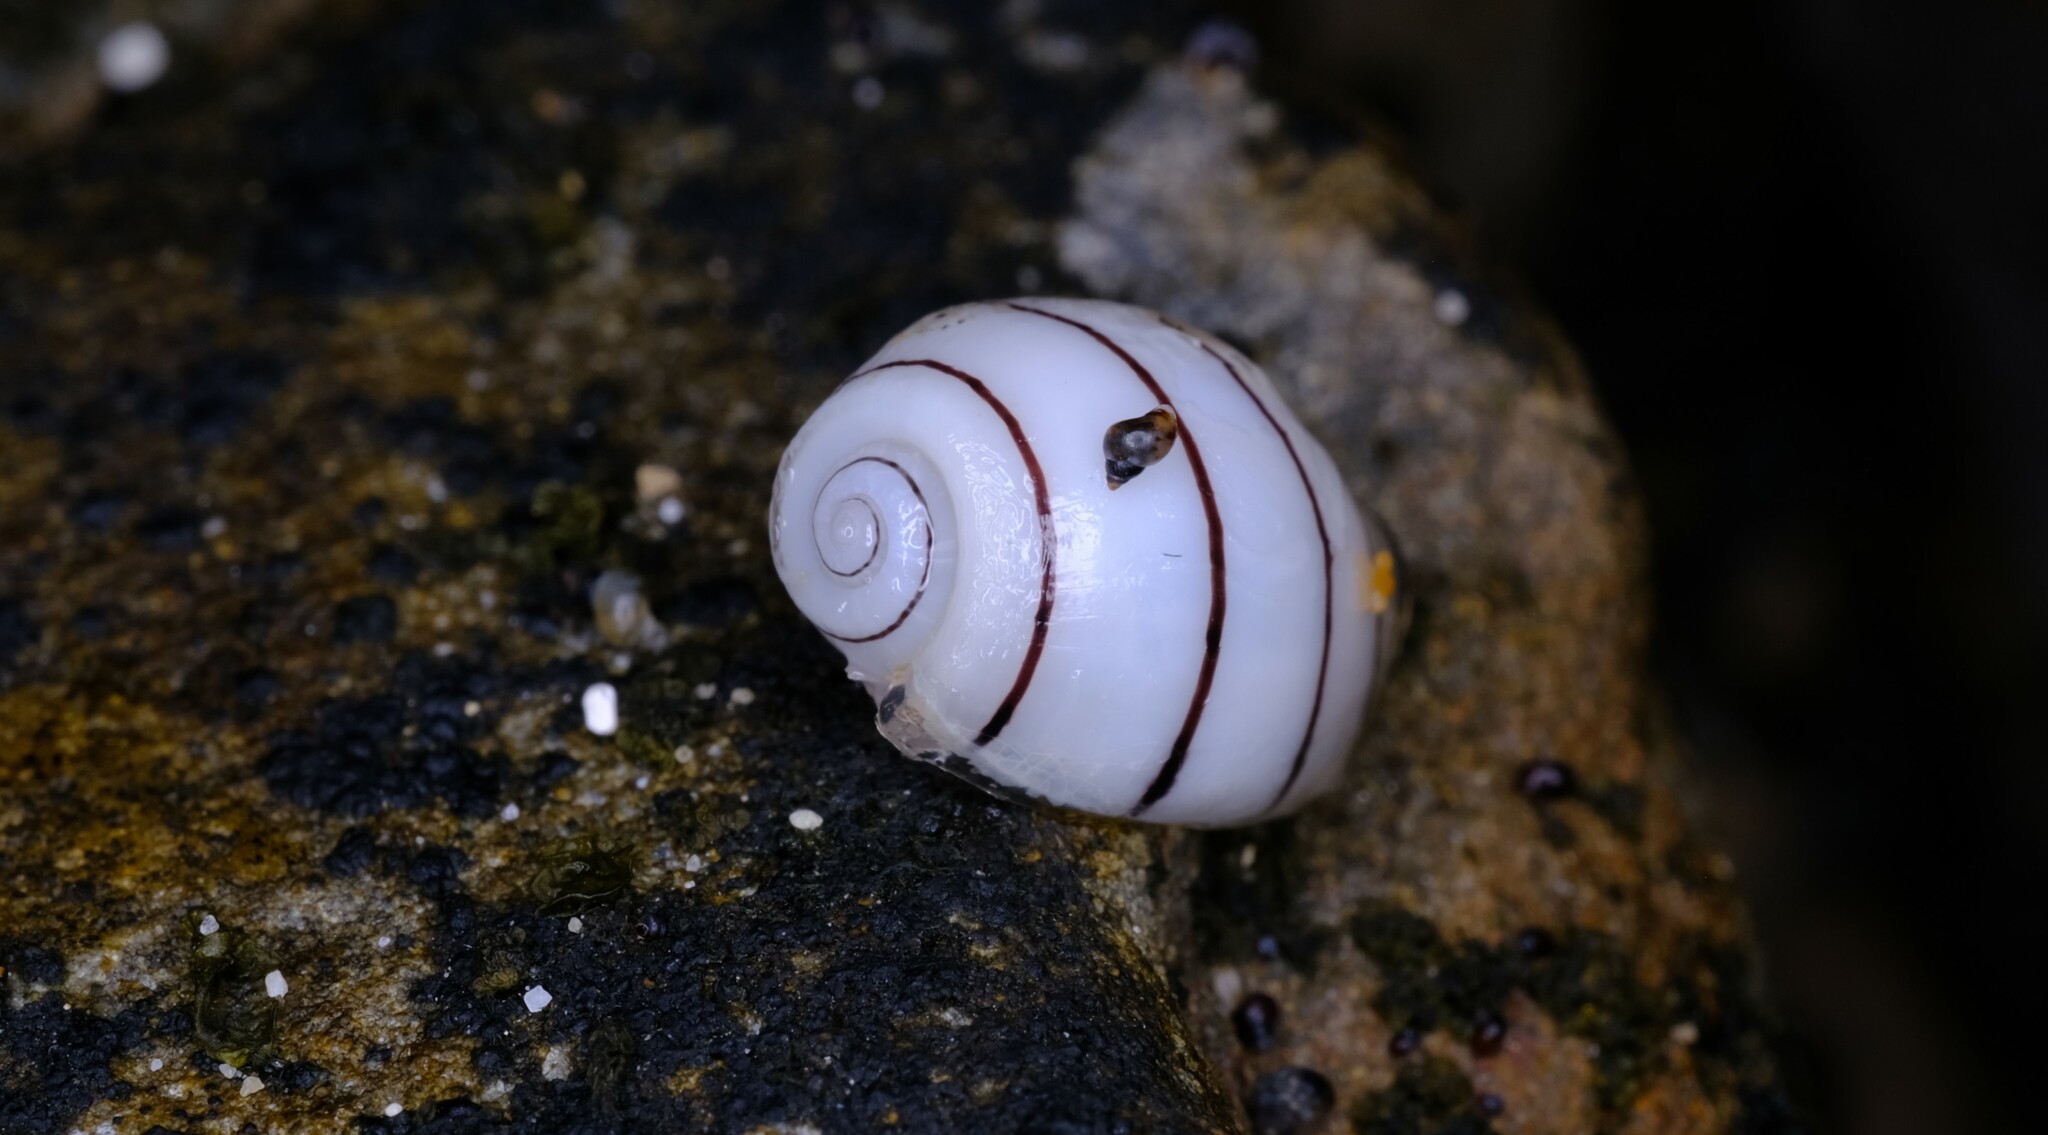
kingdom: Animalia
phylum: Mollusca
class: Gastropoda
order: Cephalaspidea
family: Aplustridae
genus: Aplustrum
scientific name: Aplustrum amplustre
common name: Royal paperbubble
